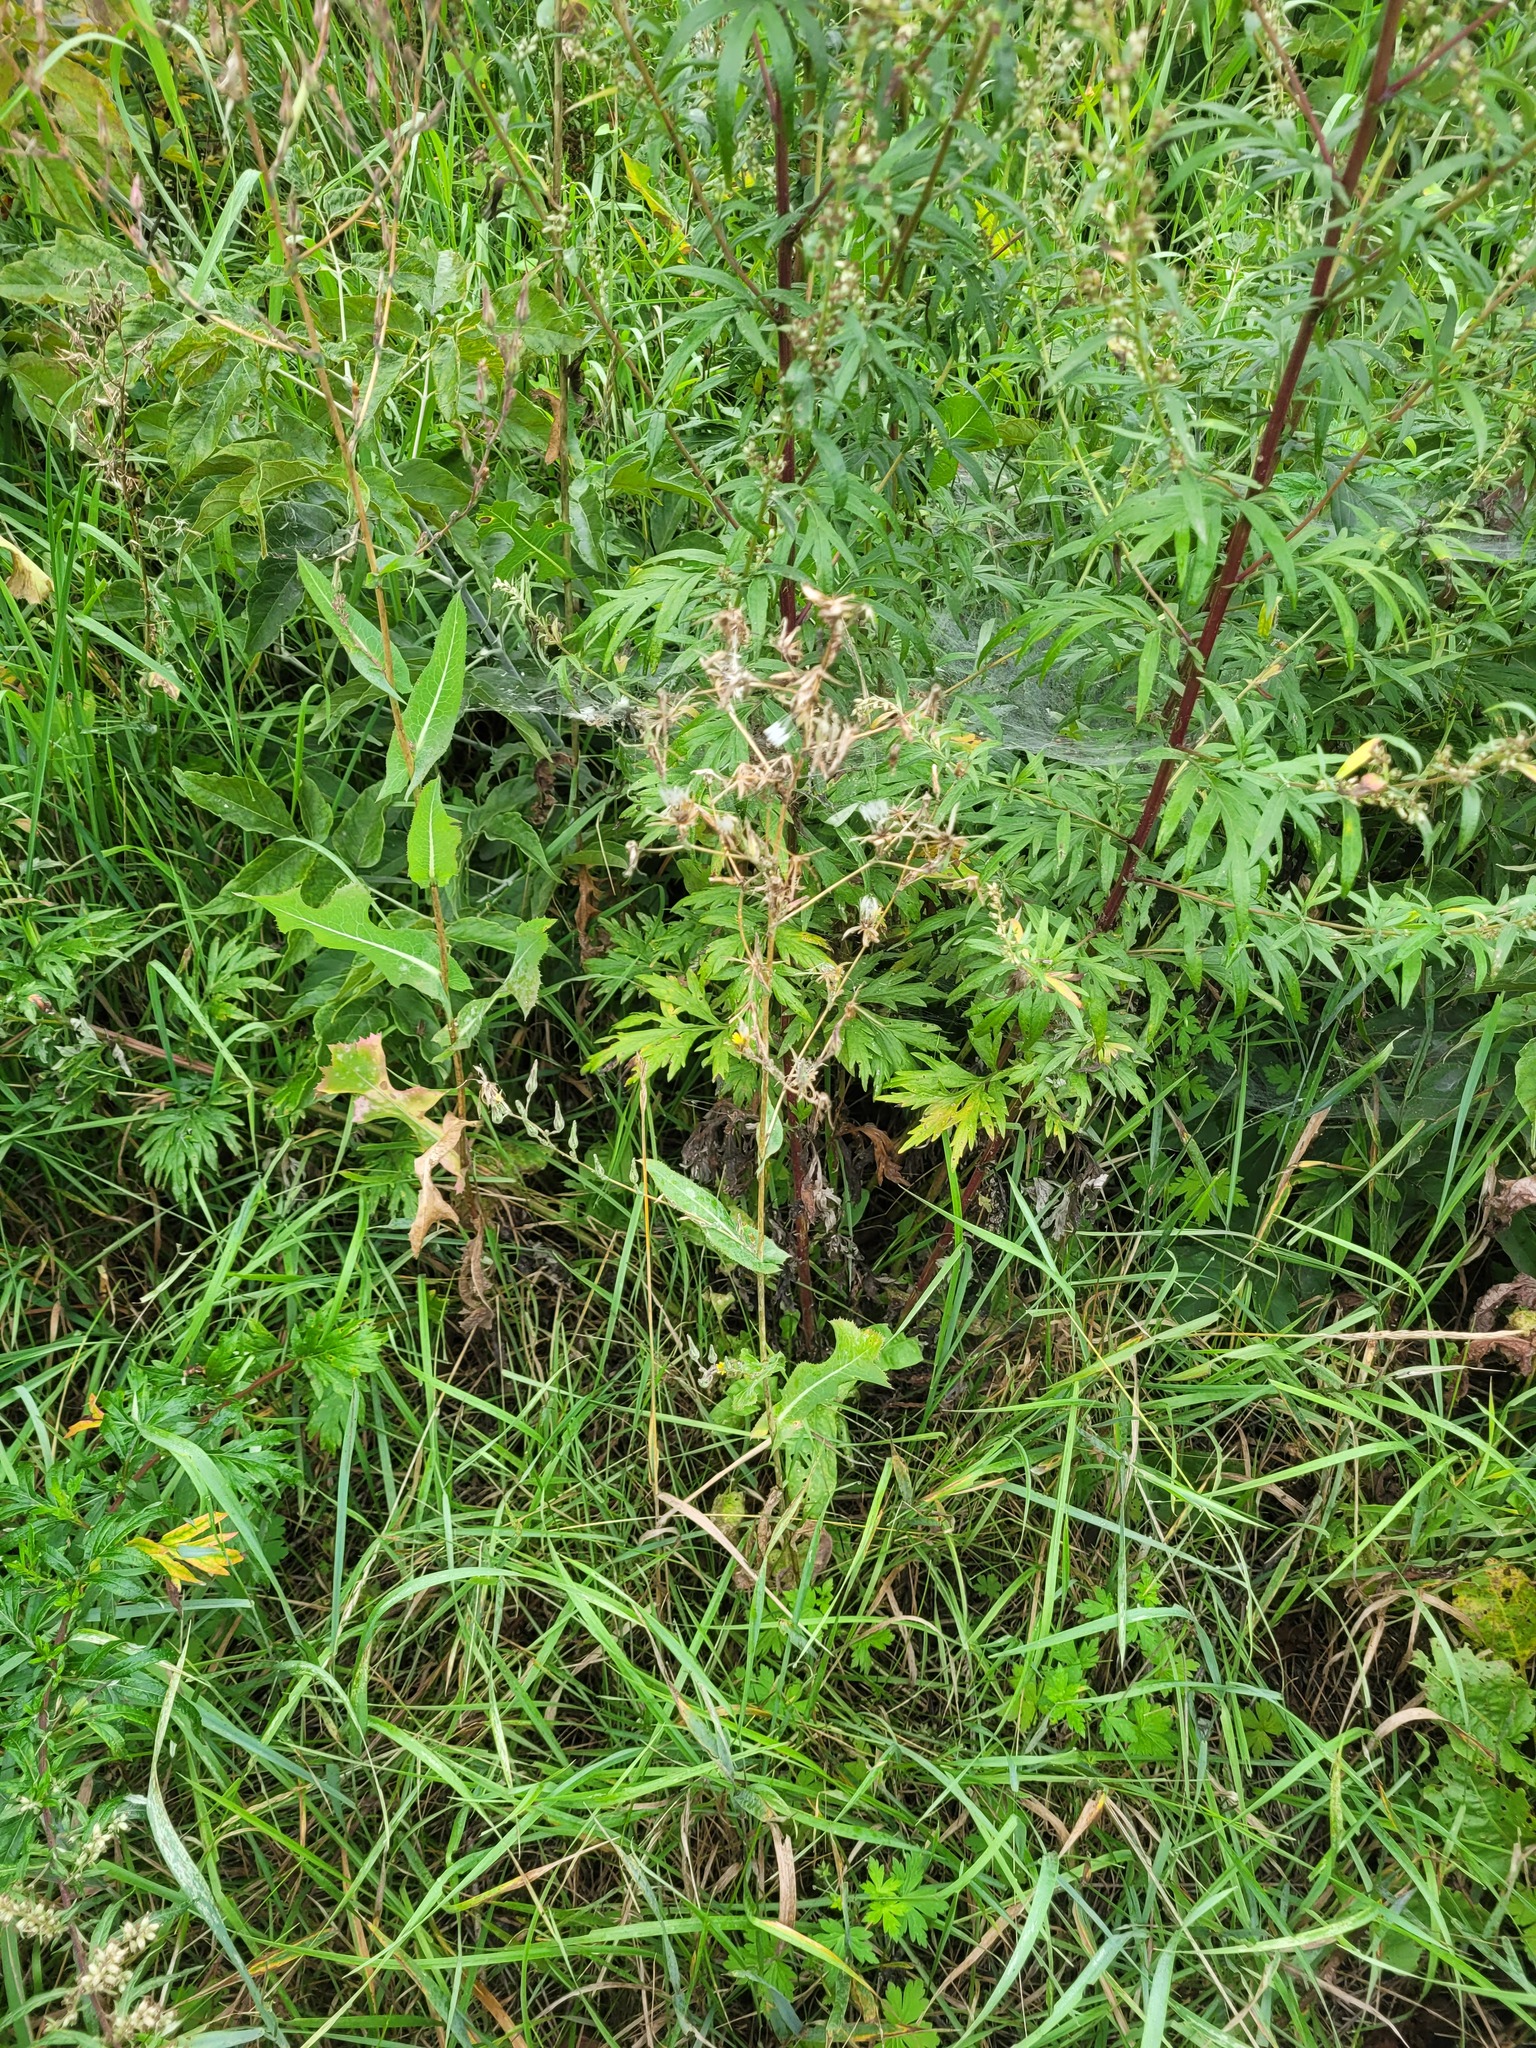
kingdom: Plantae
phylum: Tracheophyta
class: Magnoliopsida
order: Asterales
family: Asteraceae
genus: Lactuca
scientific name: Lactuca serriola
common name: Prickly lettuce
